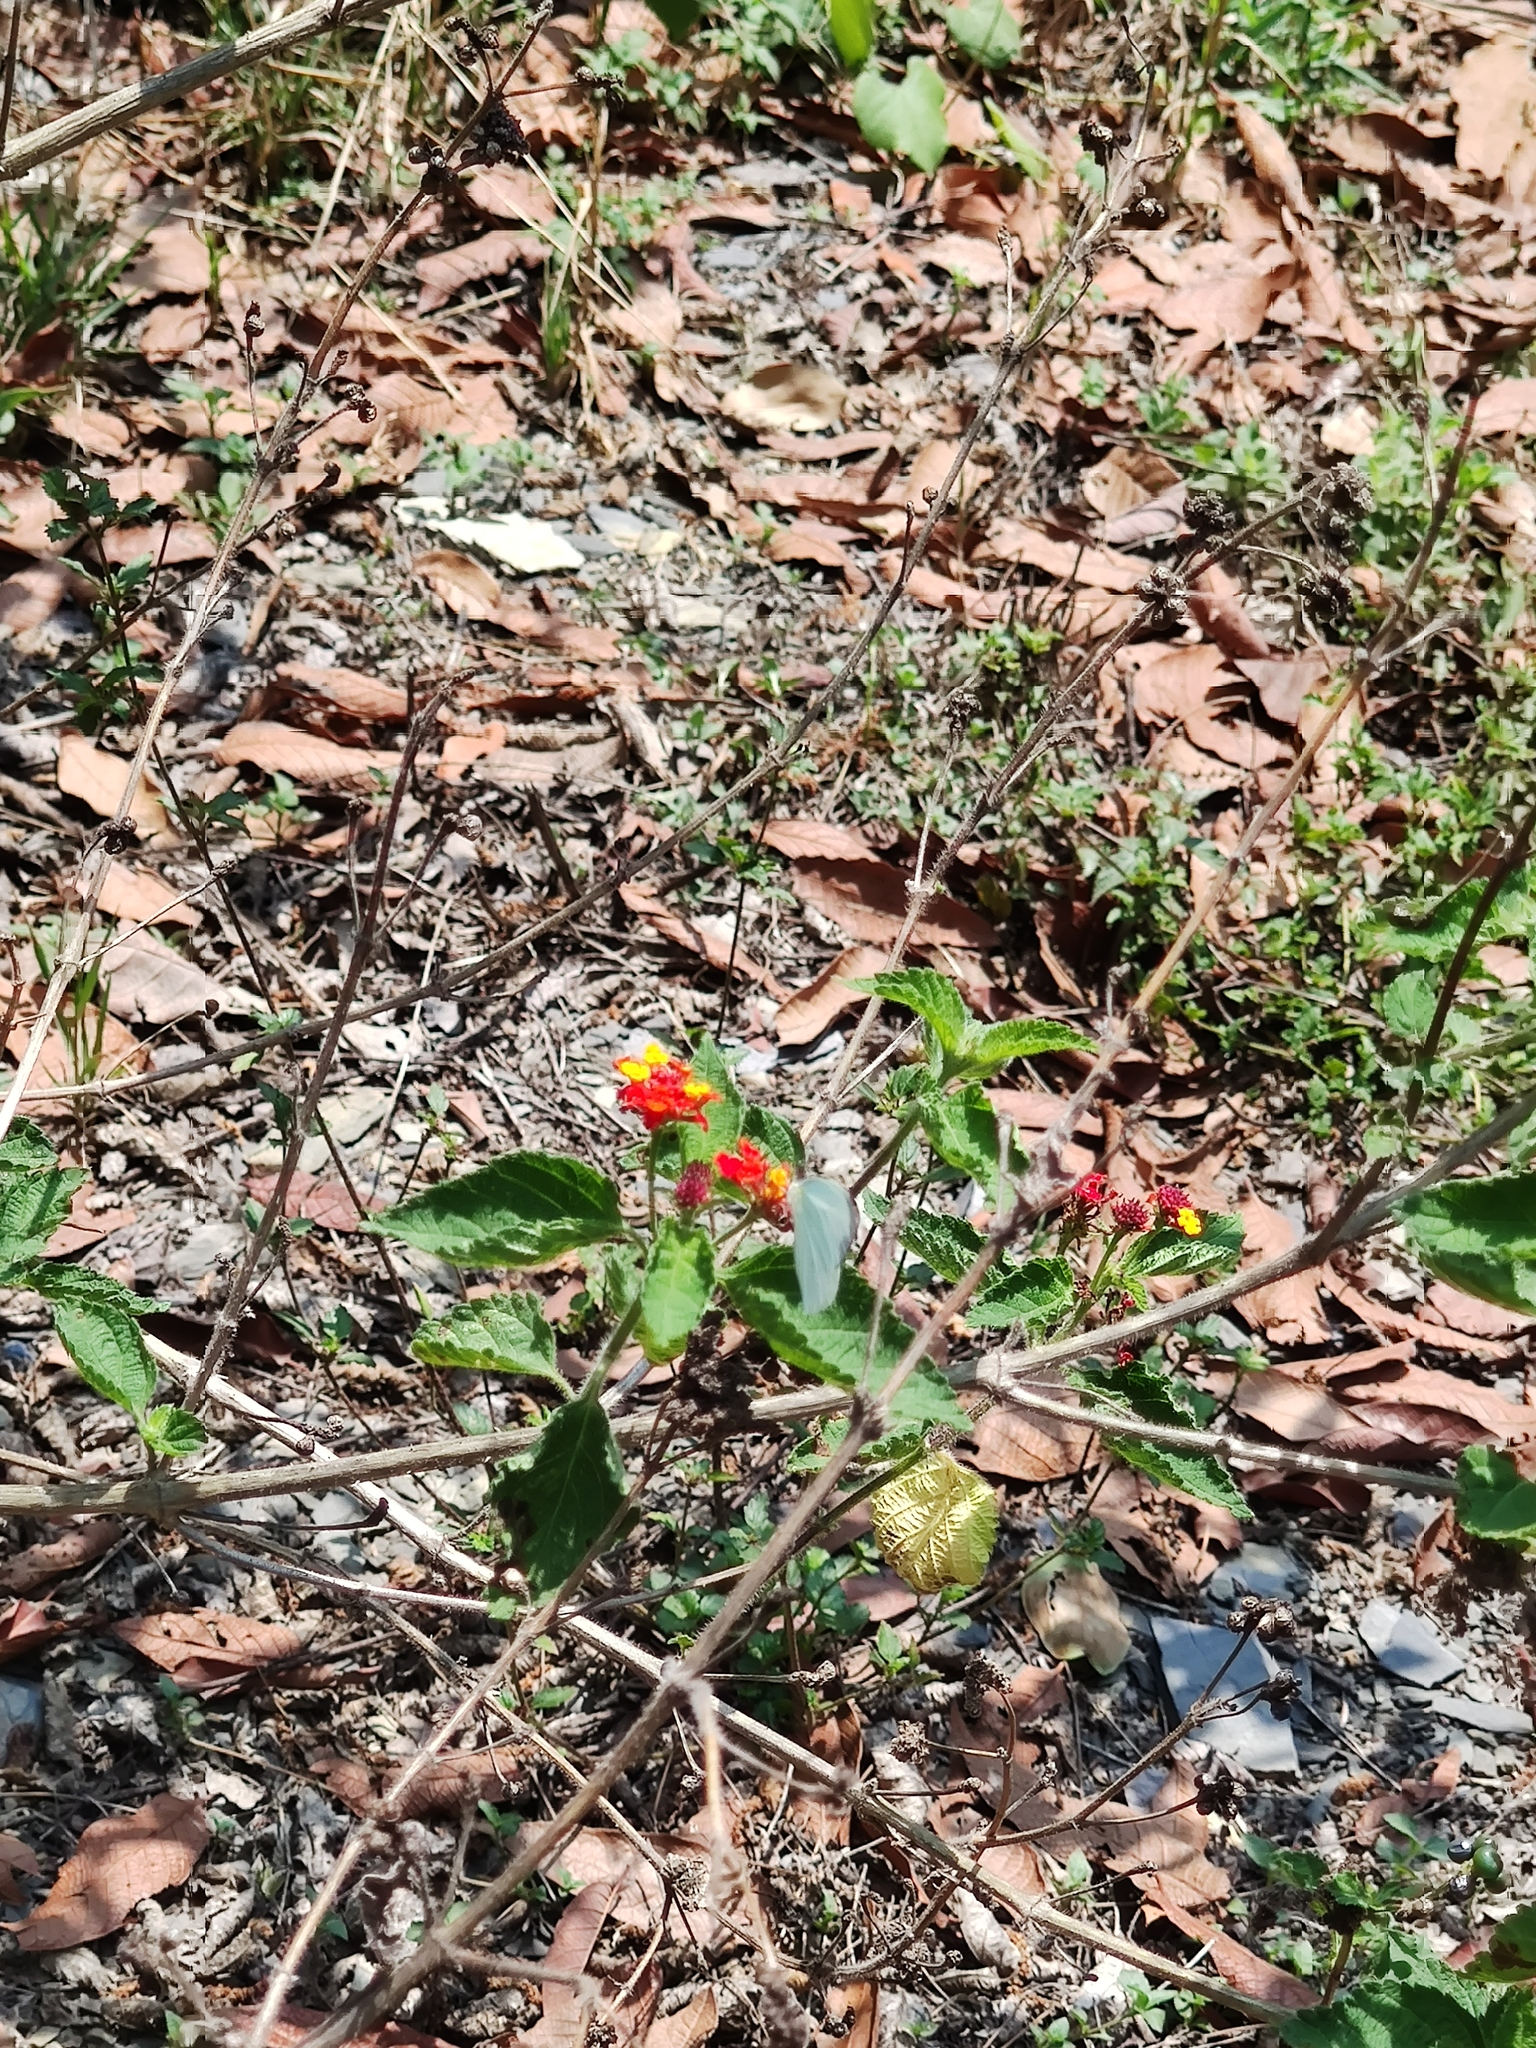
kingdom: Plantae
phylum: Tracheophyta
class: Magnoliopsida
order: Lamiales
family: Verbenaceae
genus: Lantana
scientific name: Lantana camara
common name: Lantana
